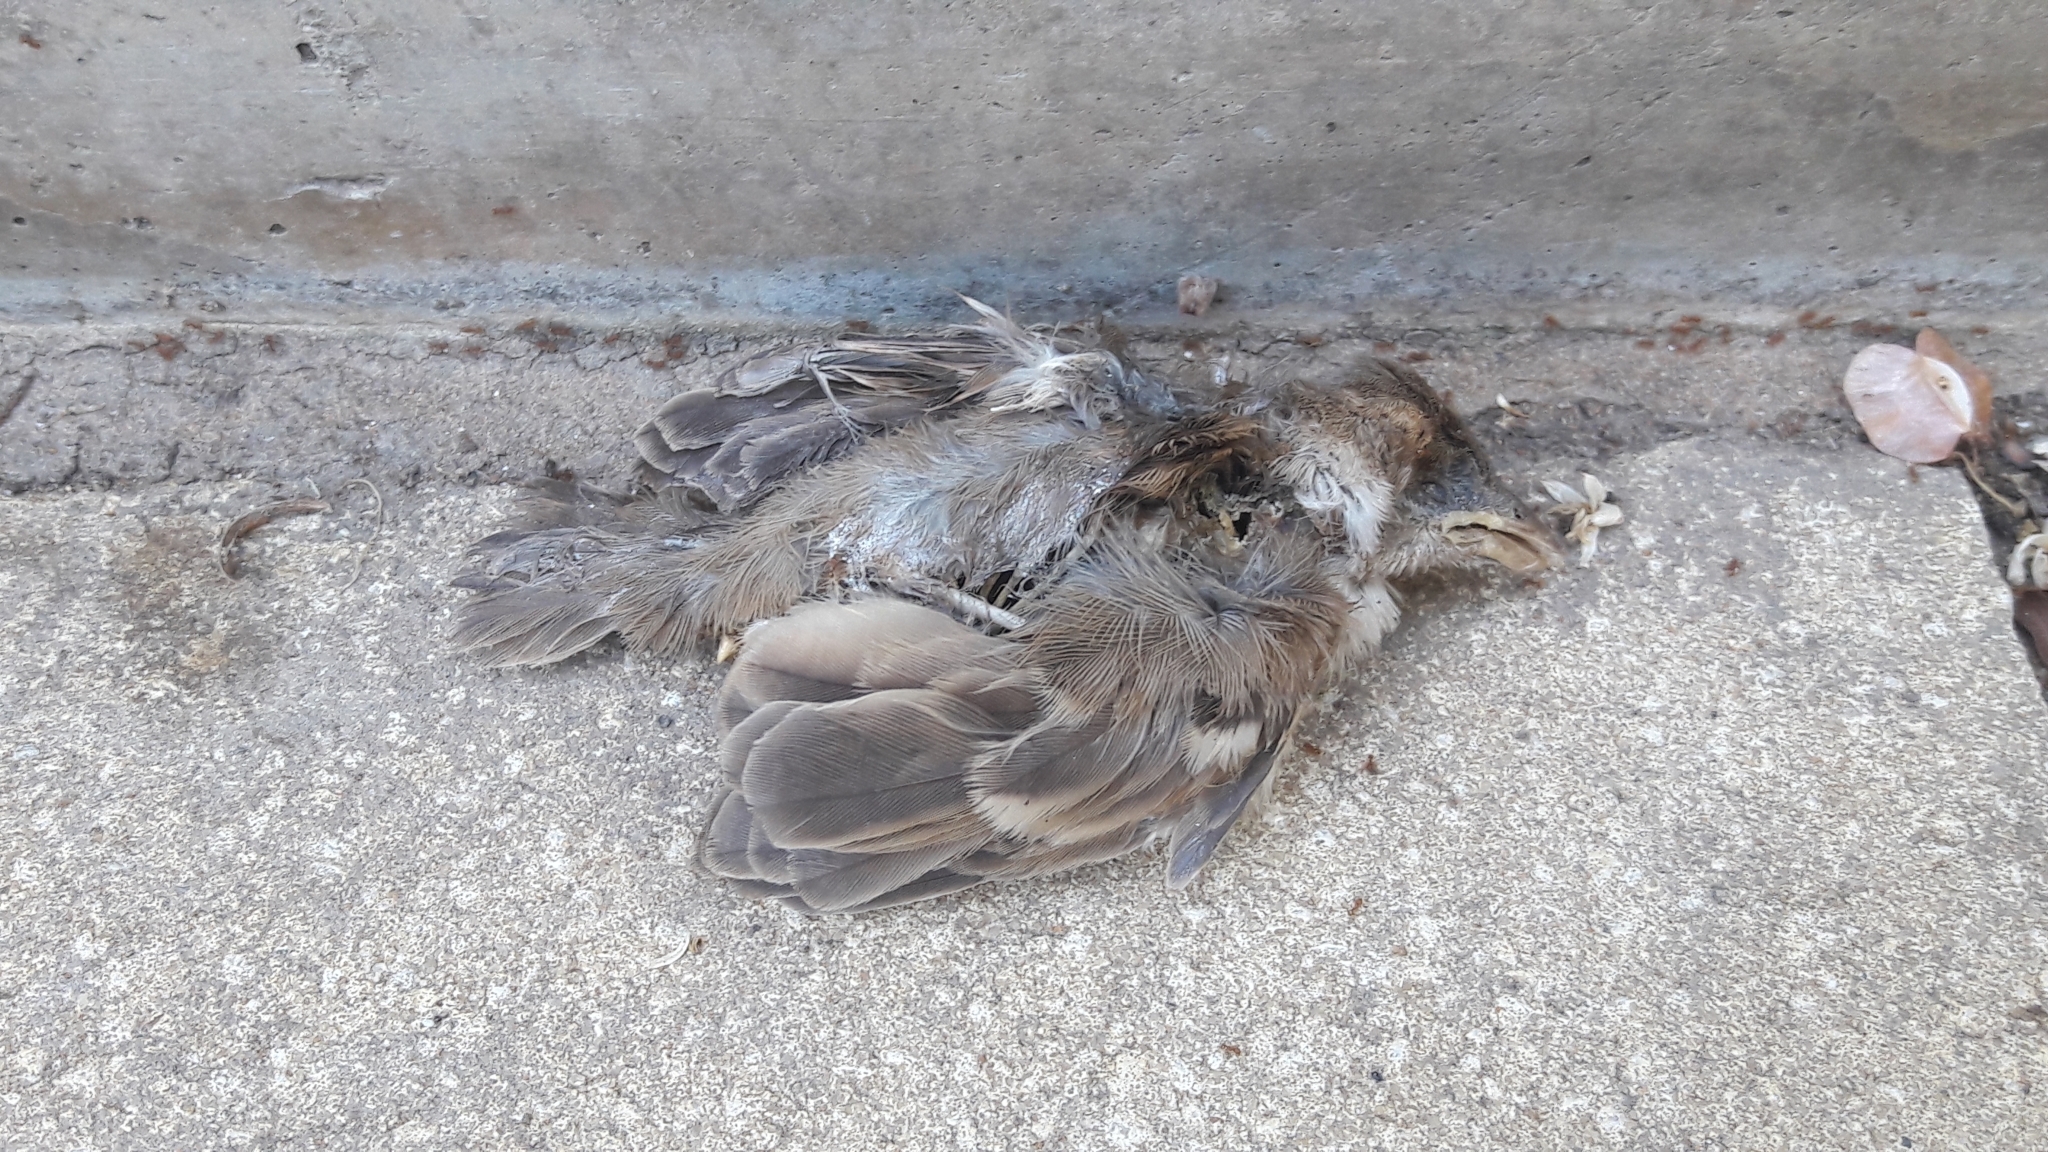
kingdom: Animalia
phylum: Chordata
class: Aves
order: Passeriformes
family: Passeridae
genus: Passer
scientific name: Passer domesticus
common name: House sparrow
